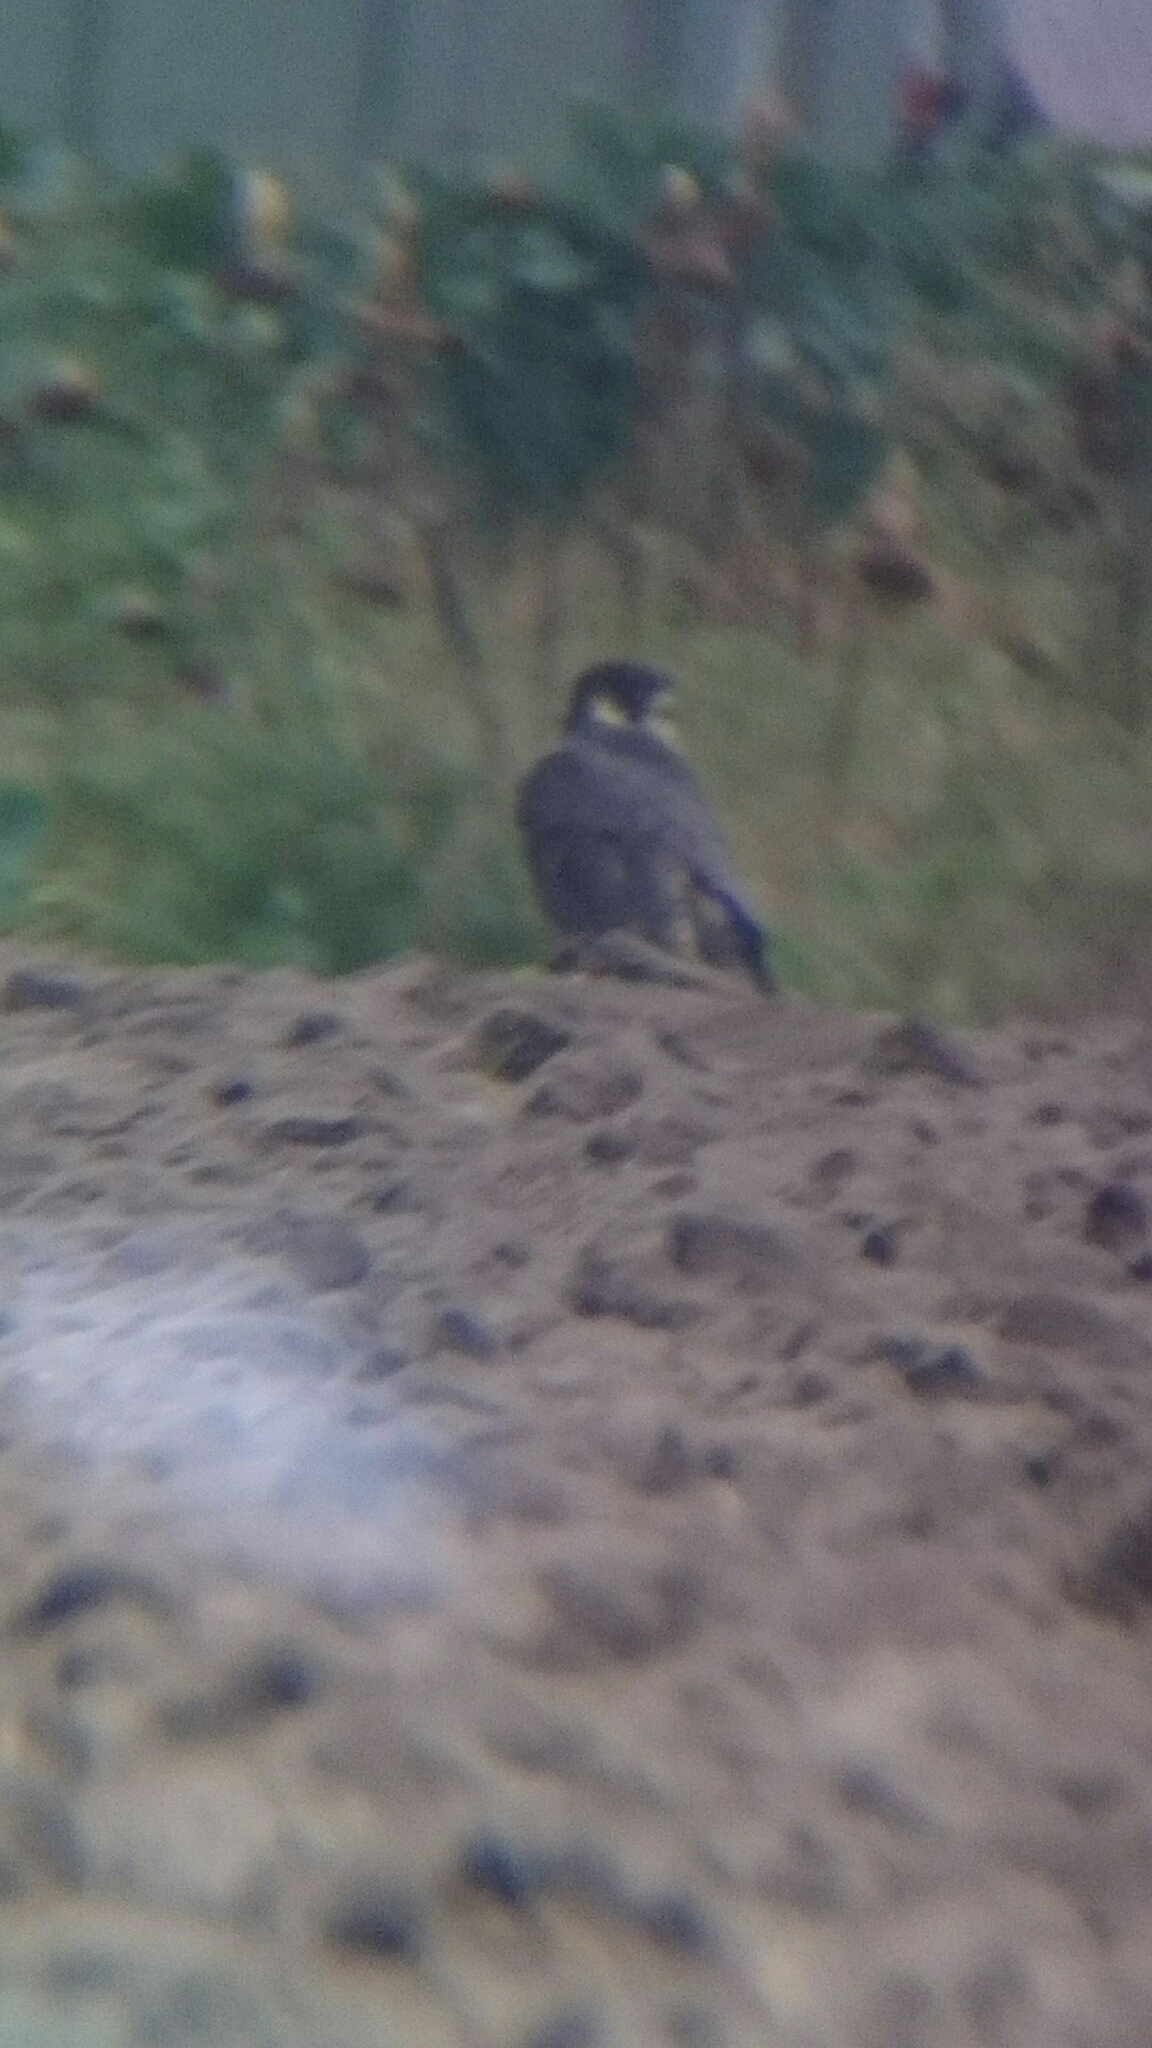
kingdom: Animalia
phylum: Chordata
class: Aves
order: Falconiformes
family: Falconidae
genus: Falco
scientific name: Falco peregrinus
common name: Peregrine falcon
